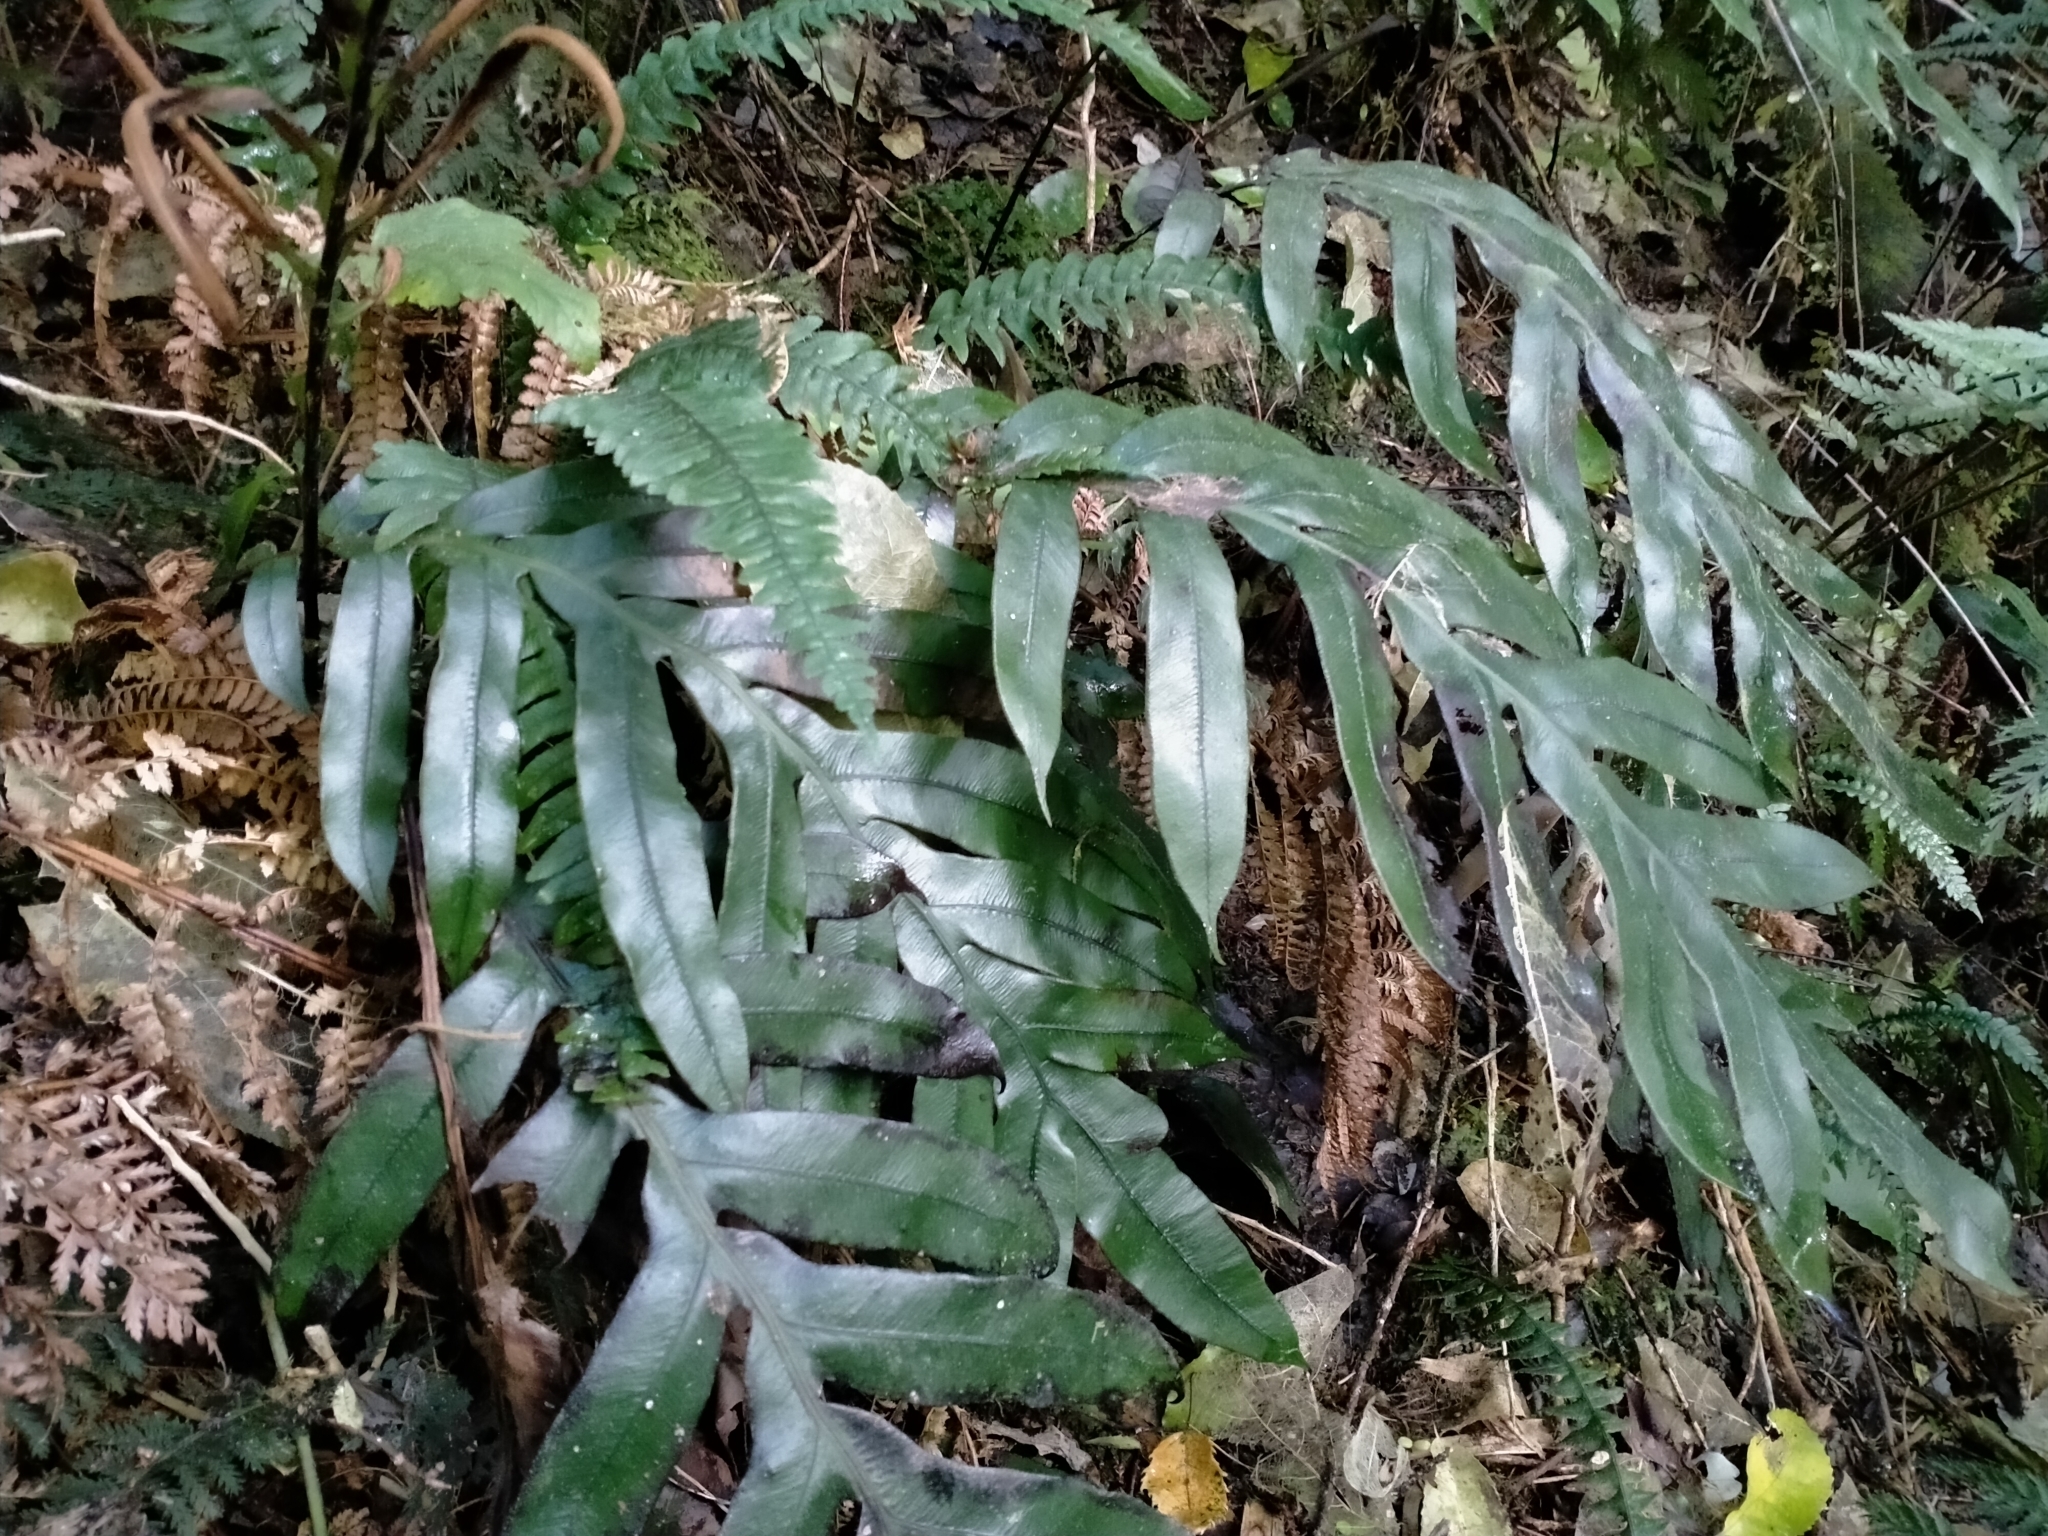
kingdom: Plantae
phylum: Tracheophyta
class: Polypodiopsida
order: Polypodiales
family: Blechnaceae
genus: Austroblechnum
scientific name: Austroblechnum colensoi
